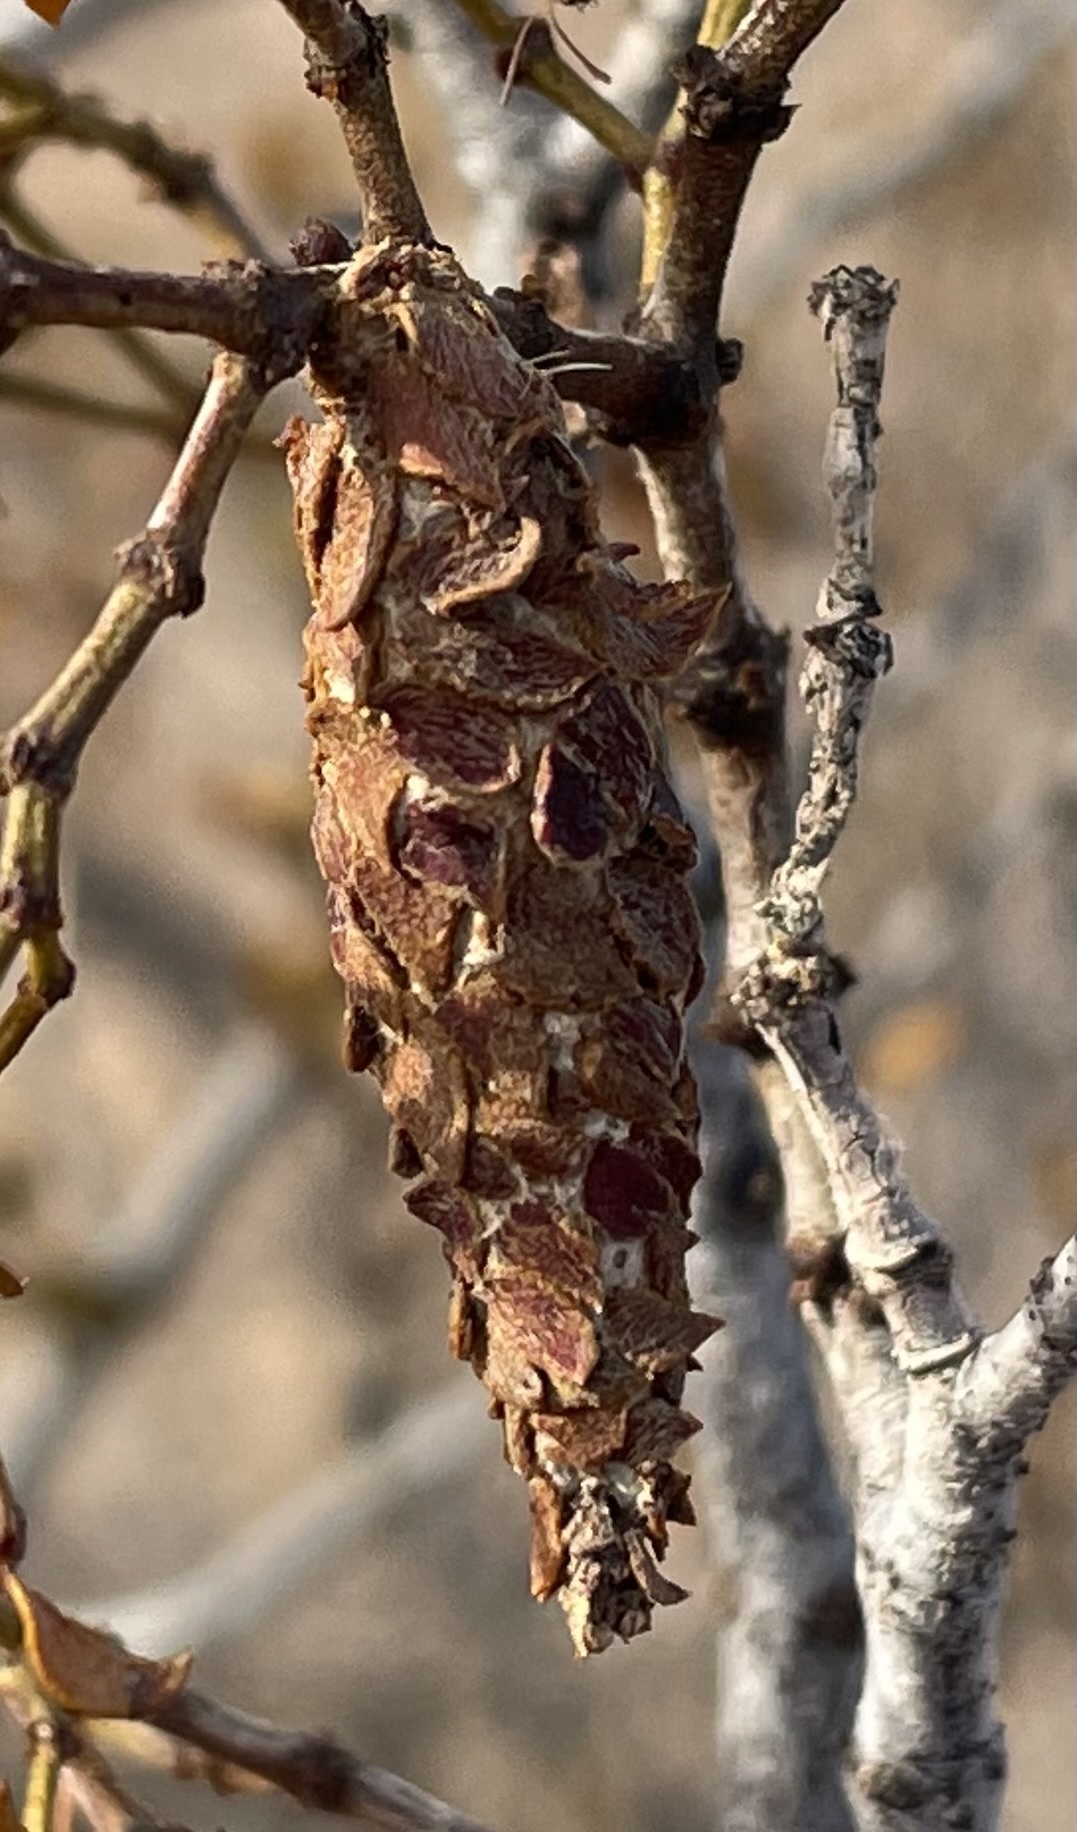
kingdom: Animalia
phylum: Arthropoda
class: Insecta
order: Lepidoptera
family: Psychidae
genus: Thyridopteryx
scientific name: Thyridopteryx meadii
